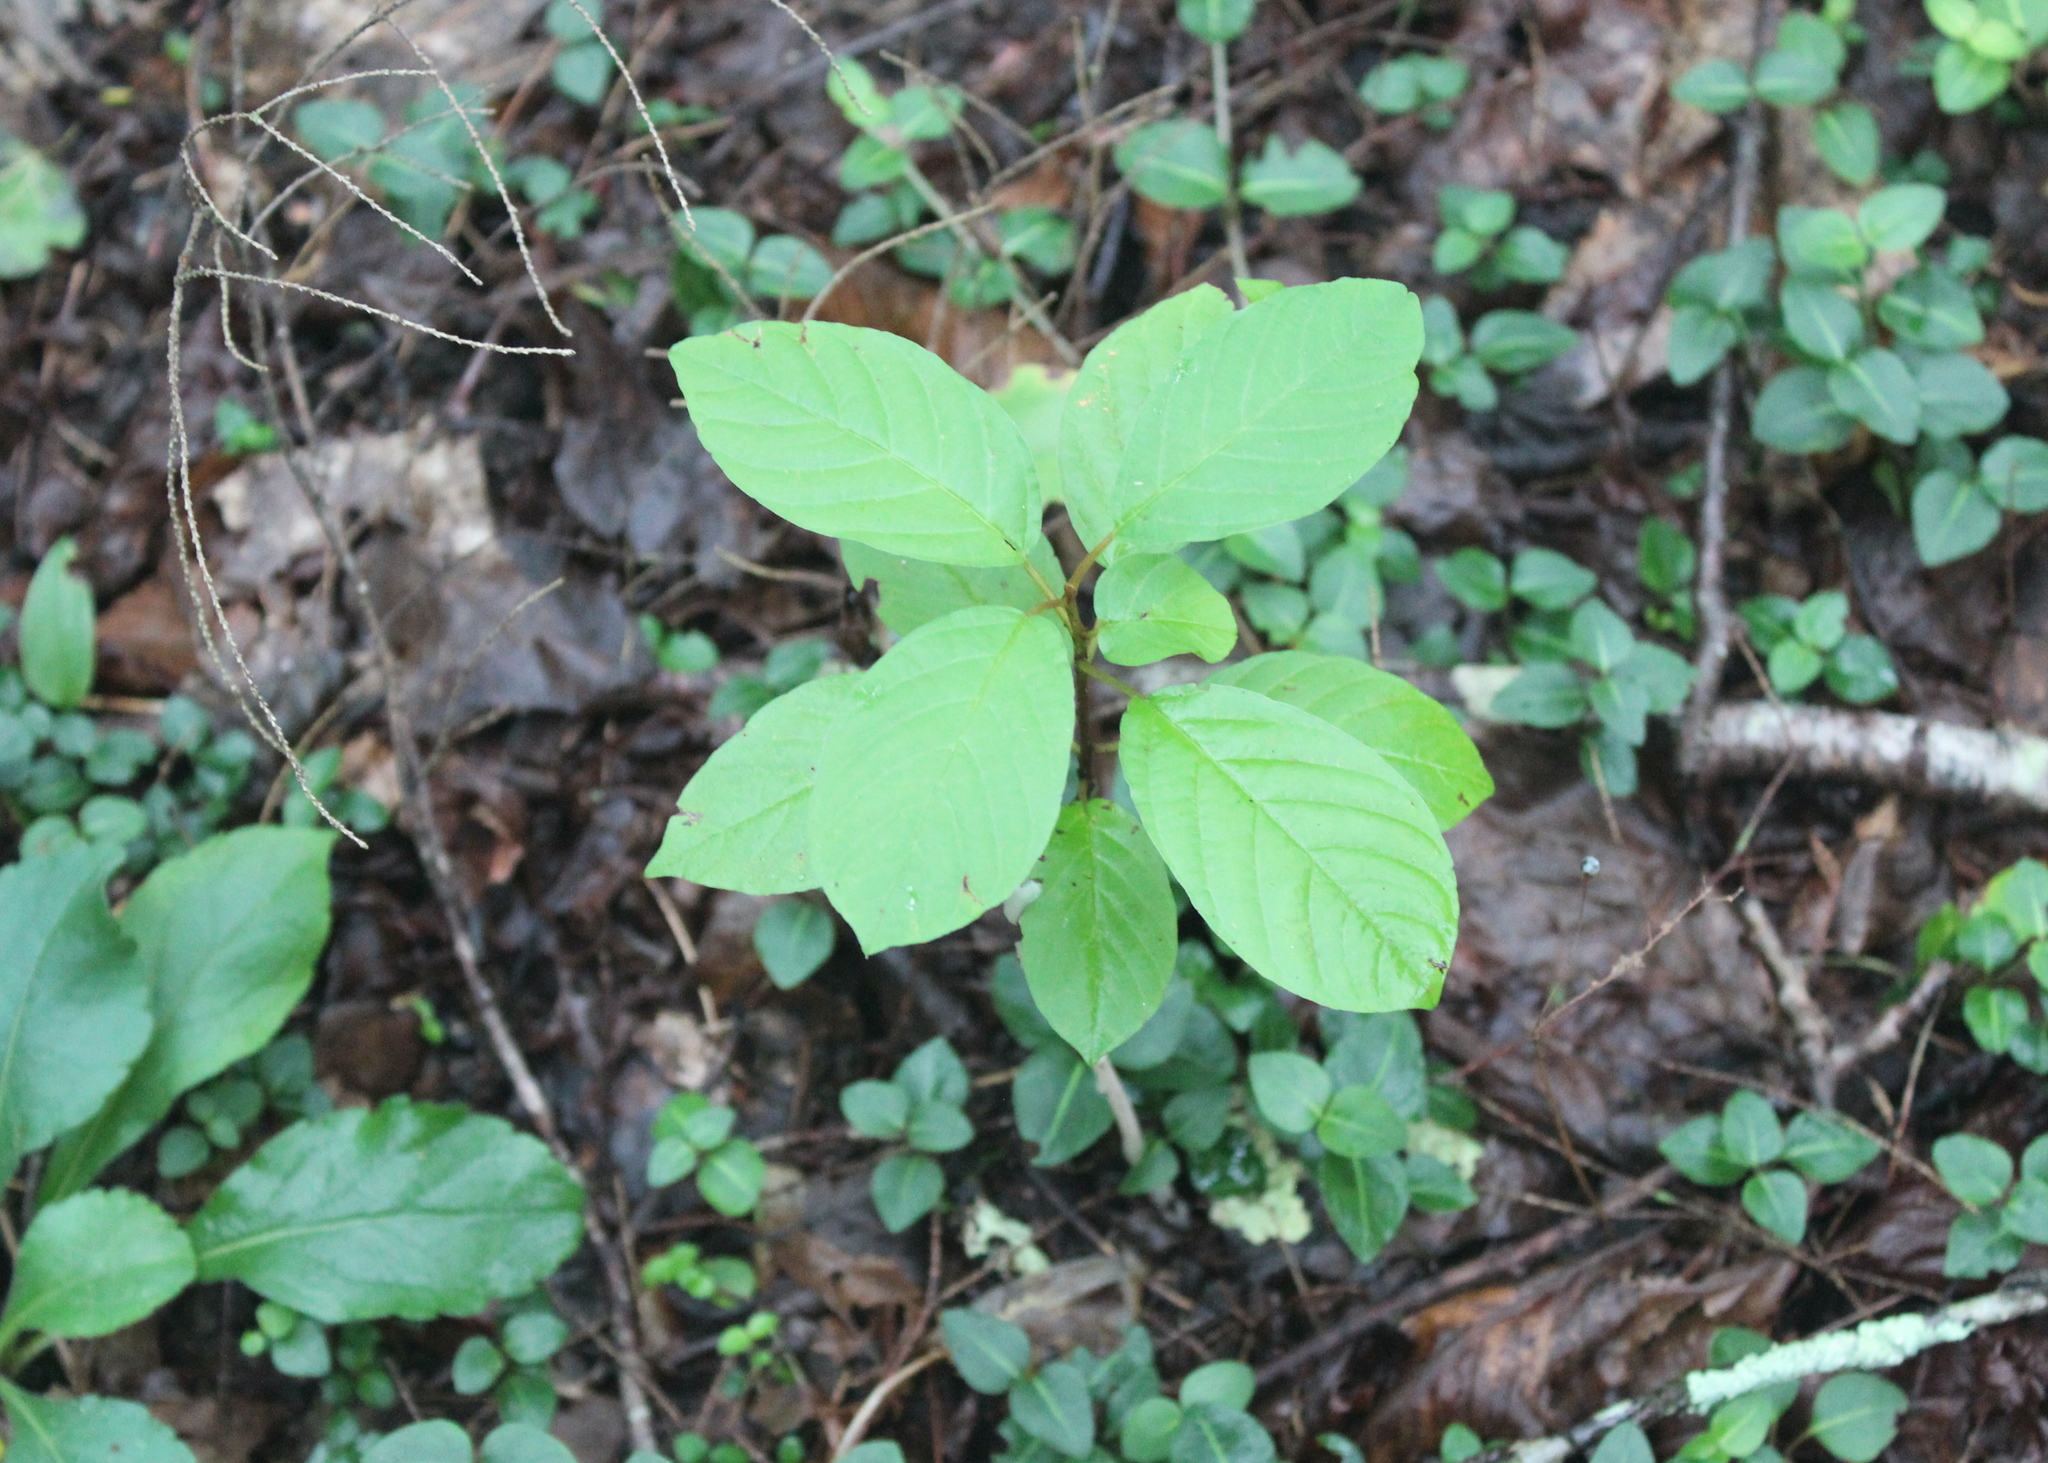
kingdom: Plantae
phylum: Tracheophyta
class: Magnoliopsida
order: Rosales
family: Rhamnaceae
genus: Frangula
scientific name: Frangula alnus
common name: Alder buckthorn
